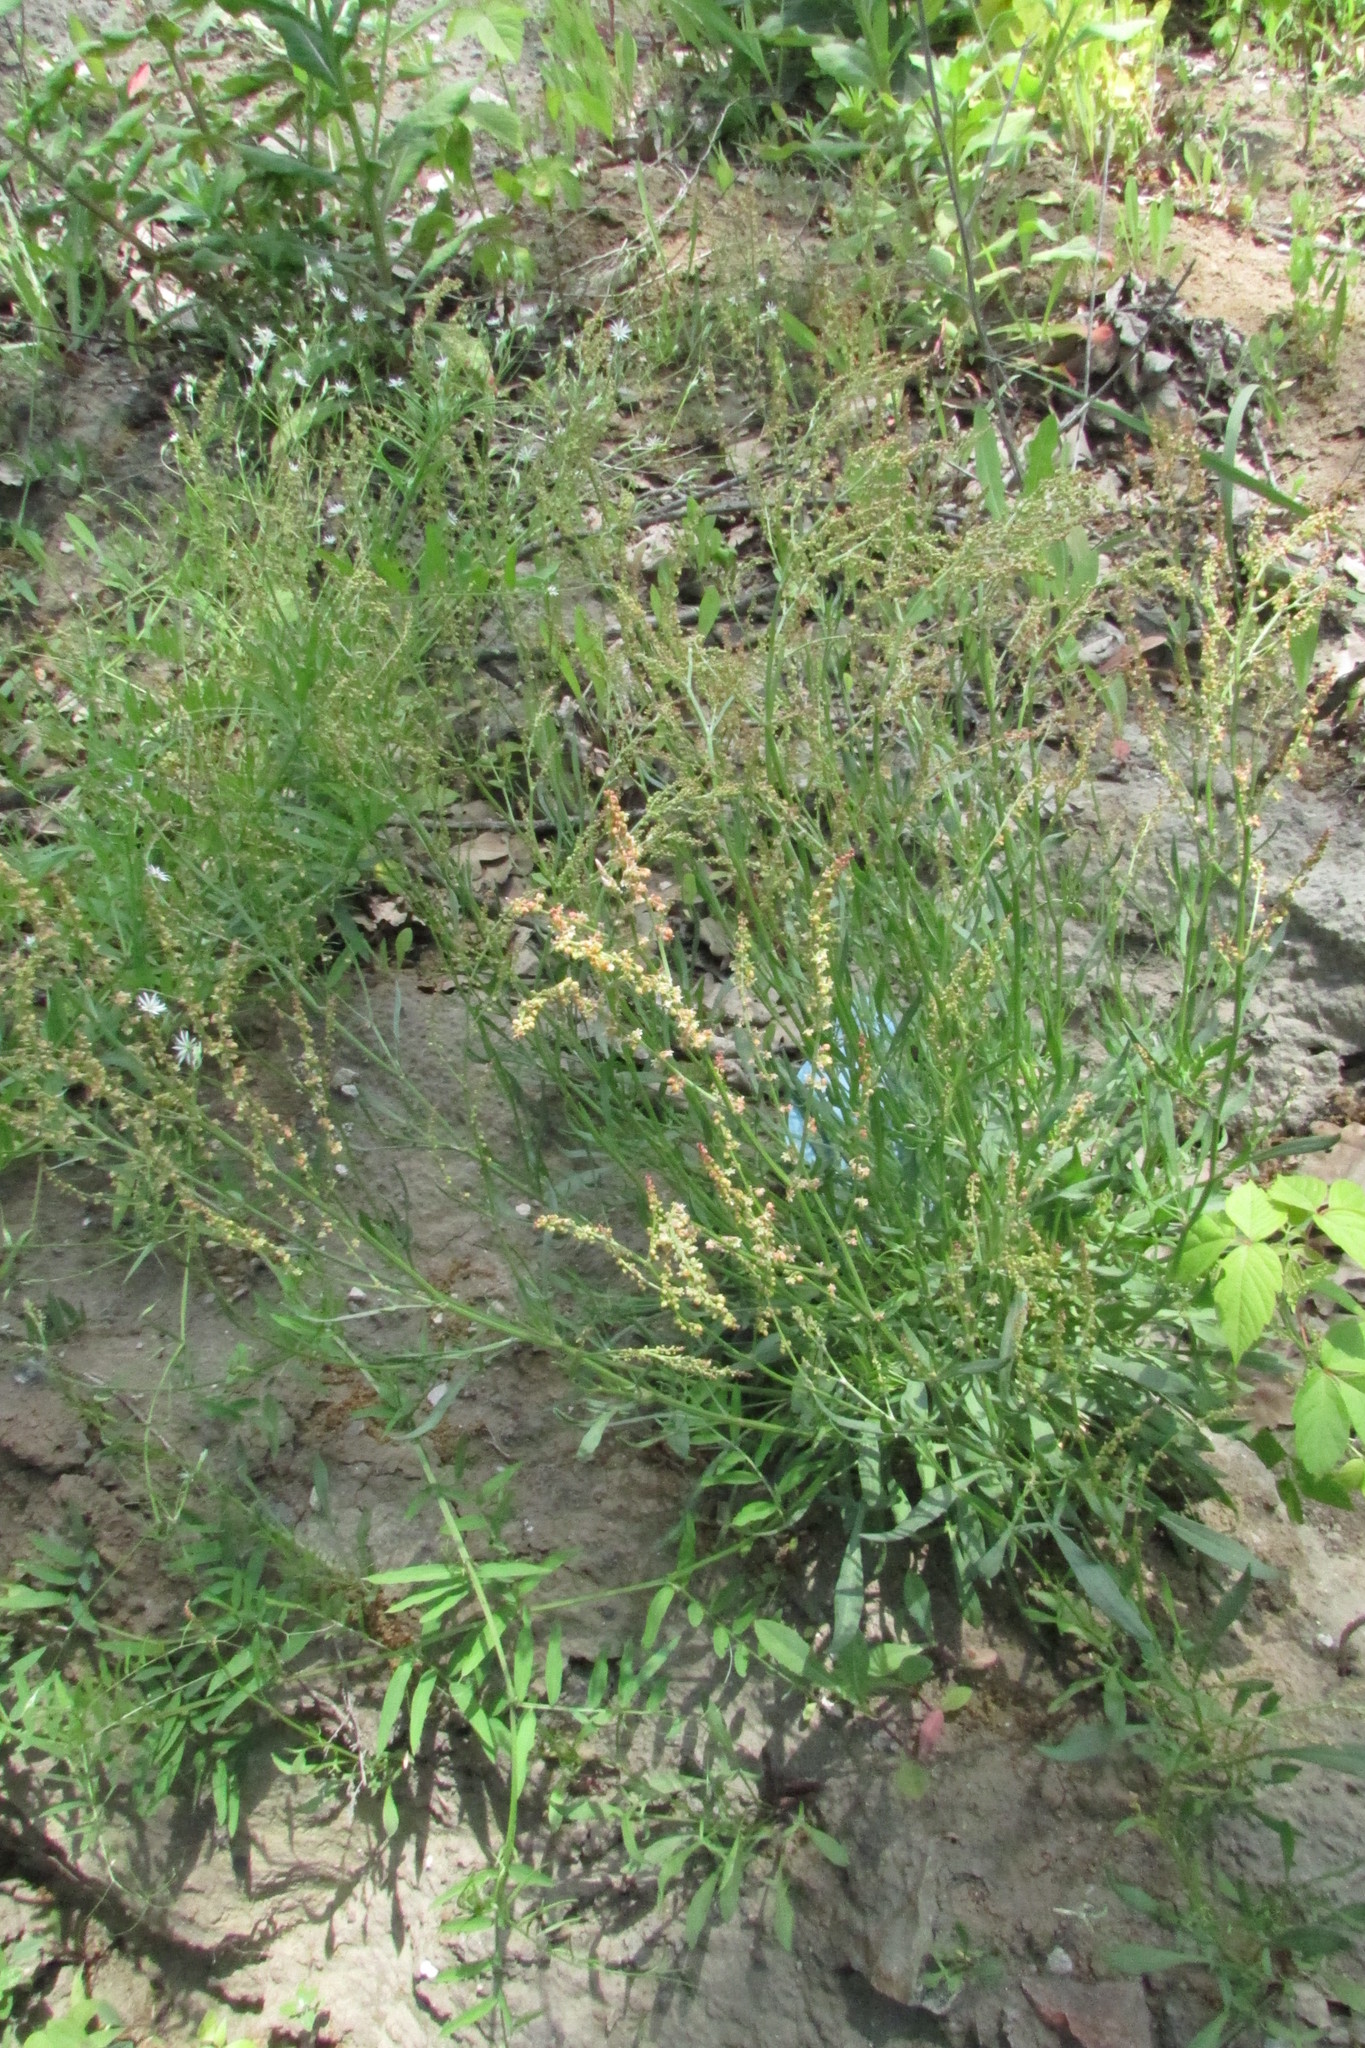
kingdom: Plantae
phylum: Tracheophyta
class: Magnoliopsida
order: Caryophyllales
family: Polygonaceae
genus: Rumex
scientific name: Rumex acetosella
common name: Common sheep sorrel
